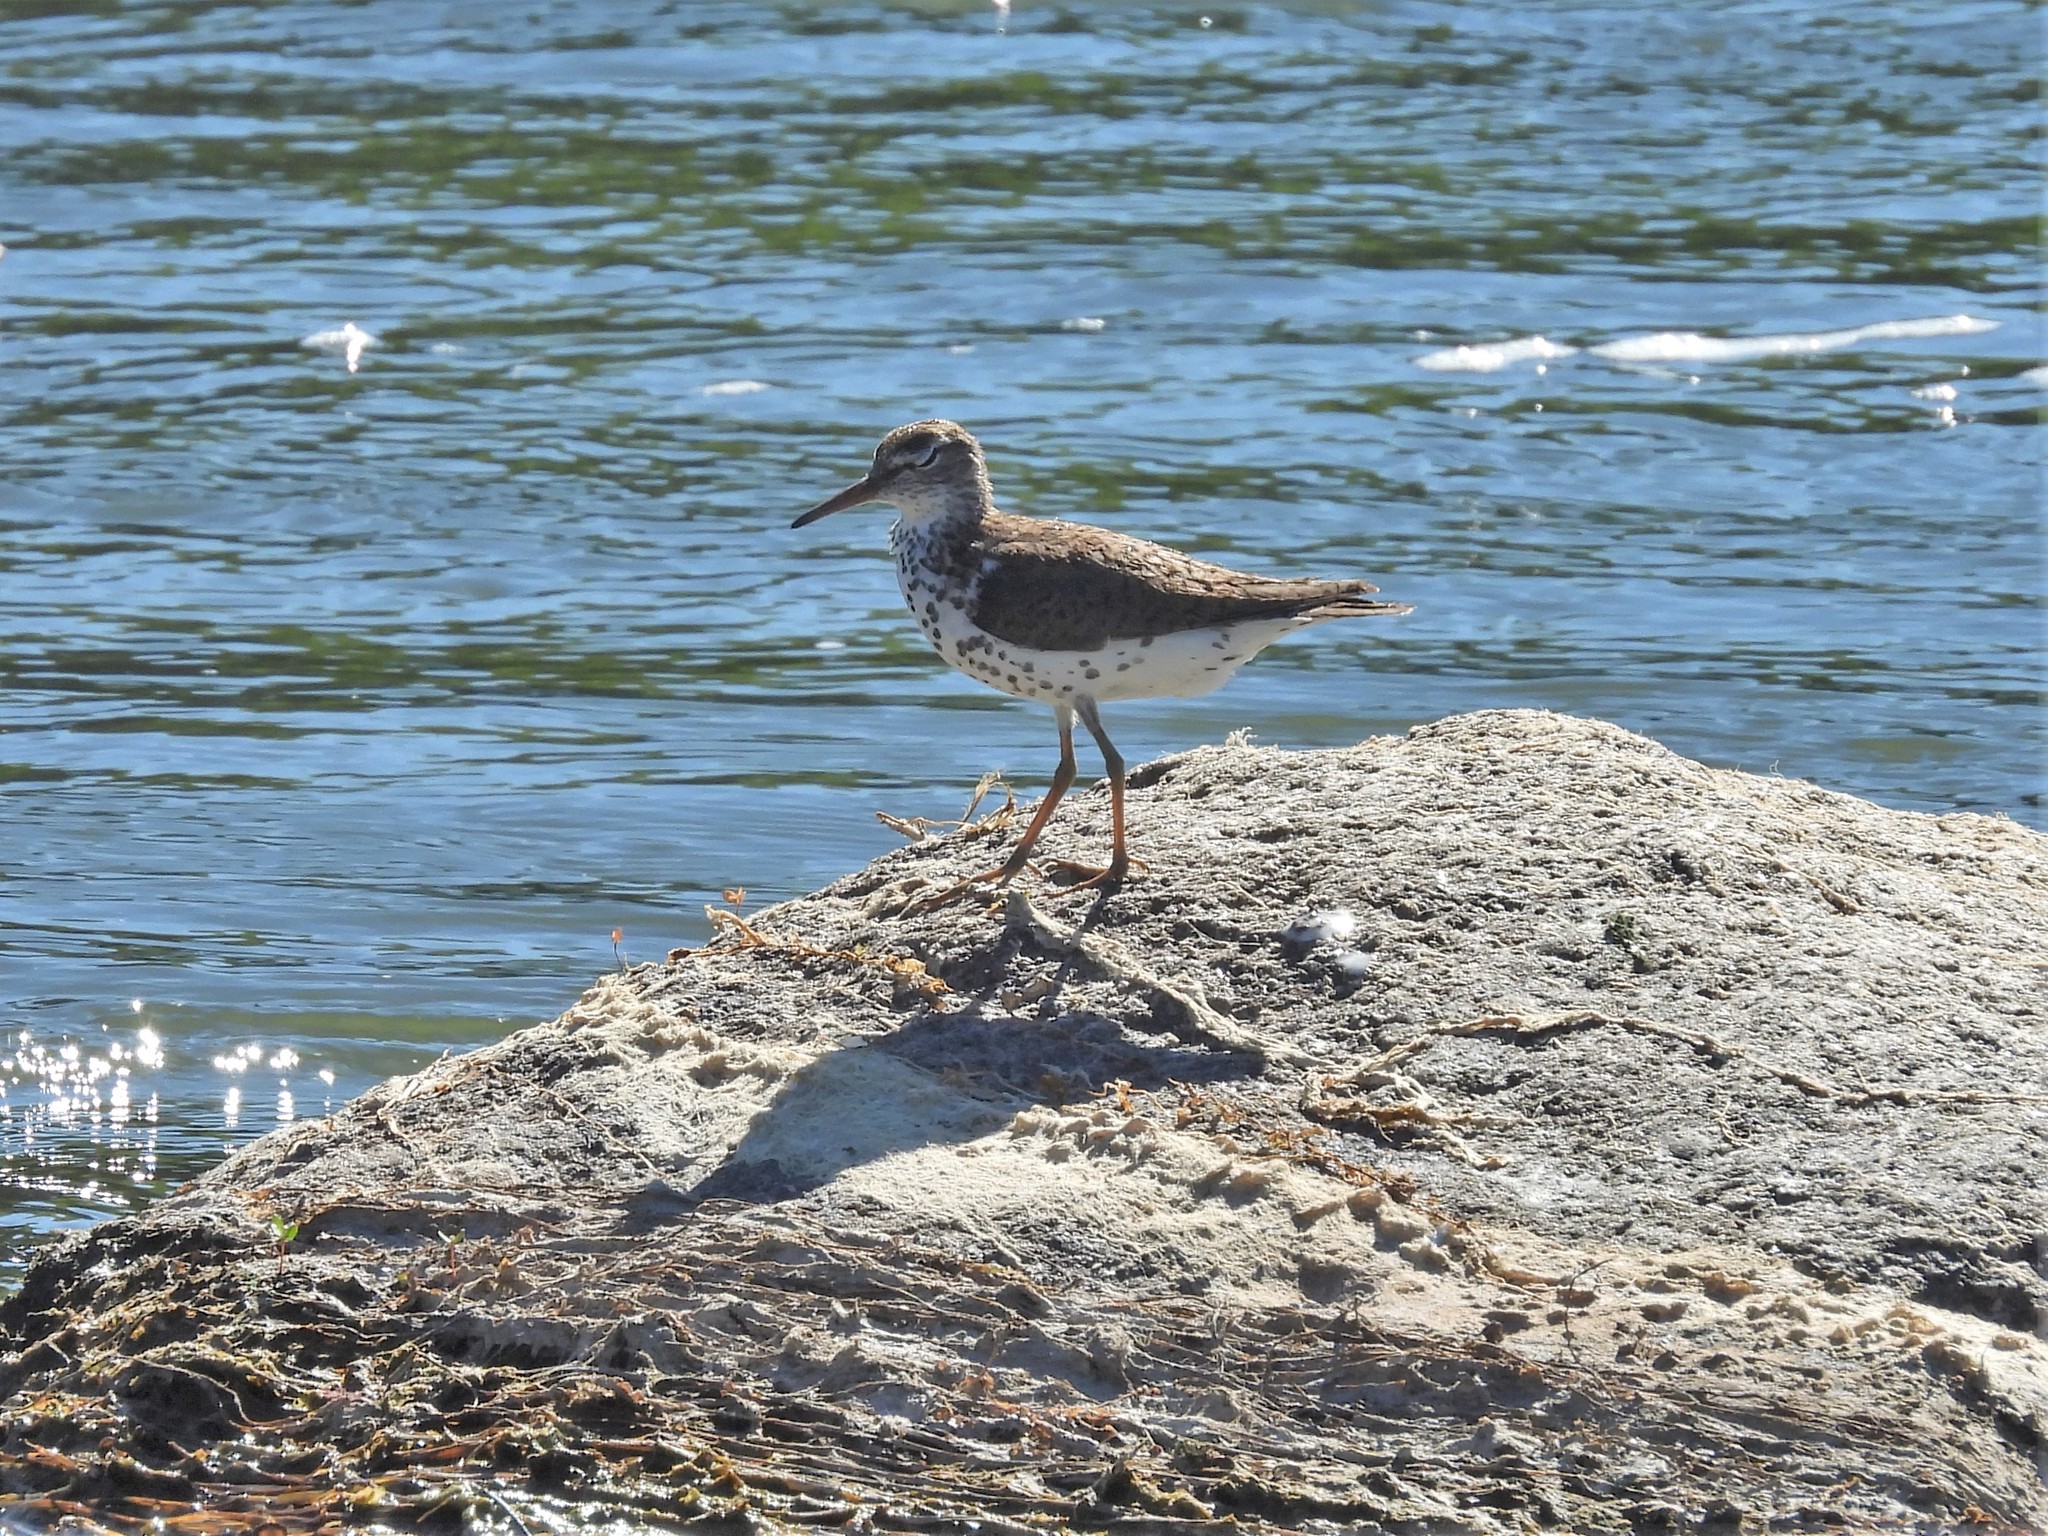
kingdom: Animalia
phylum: Chordata
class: Aves
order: Charadriiformes
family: Scolopacidae
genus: Actitis
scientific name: Actitis macularius
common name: Spotted sandpiper
